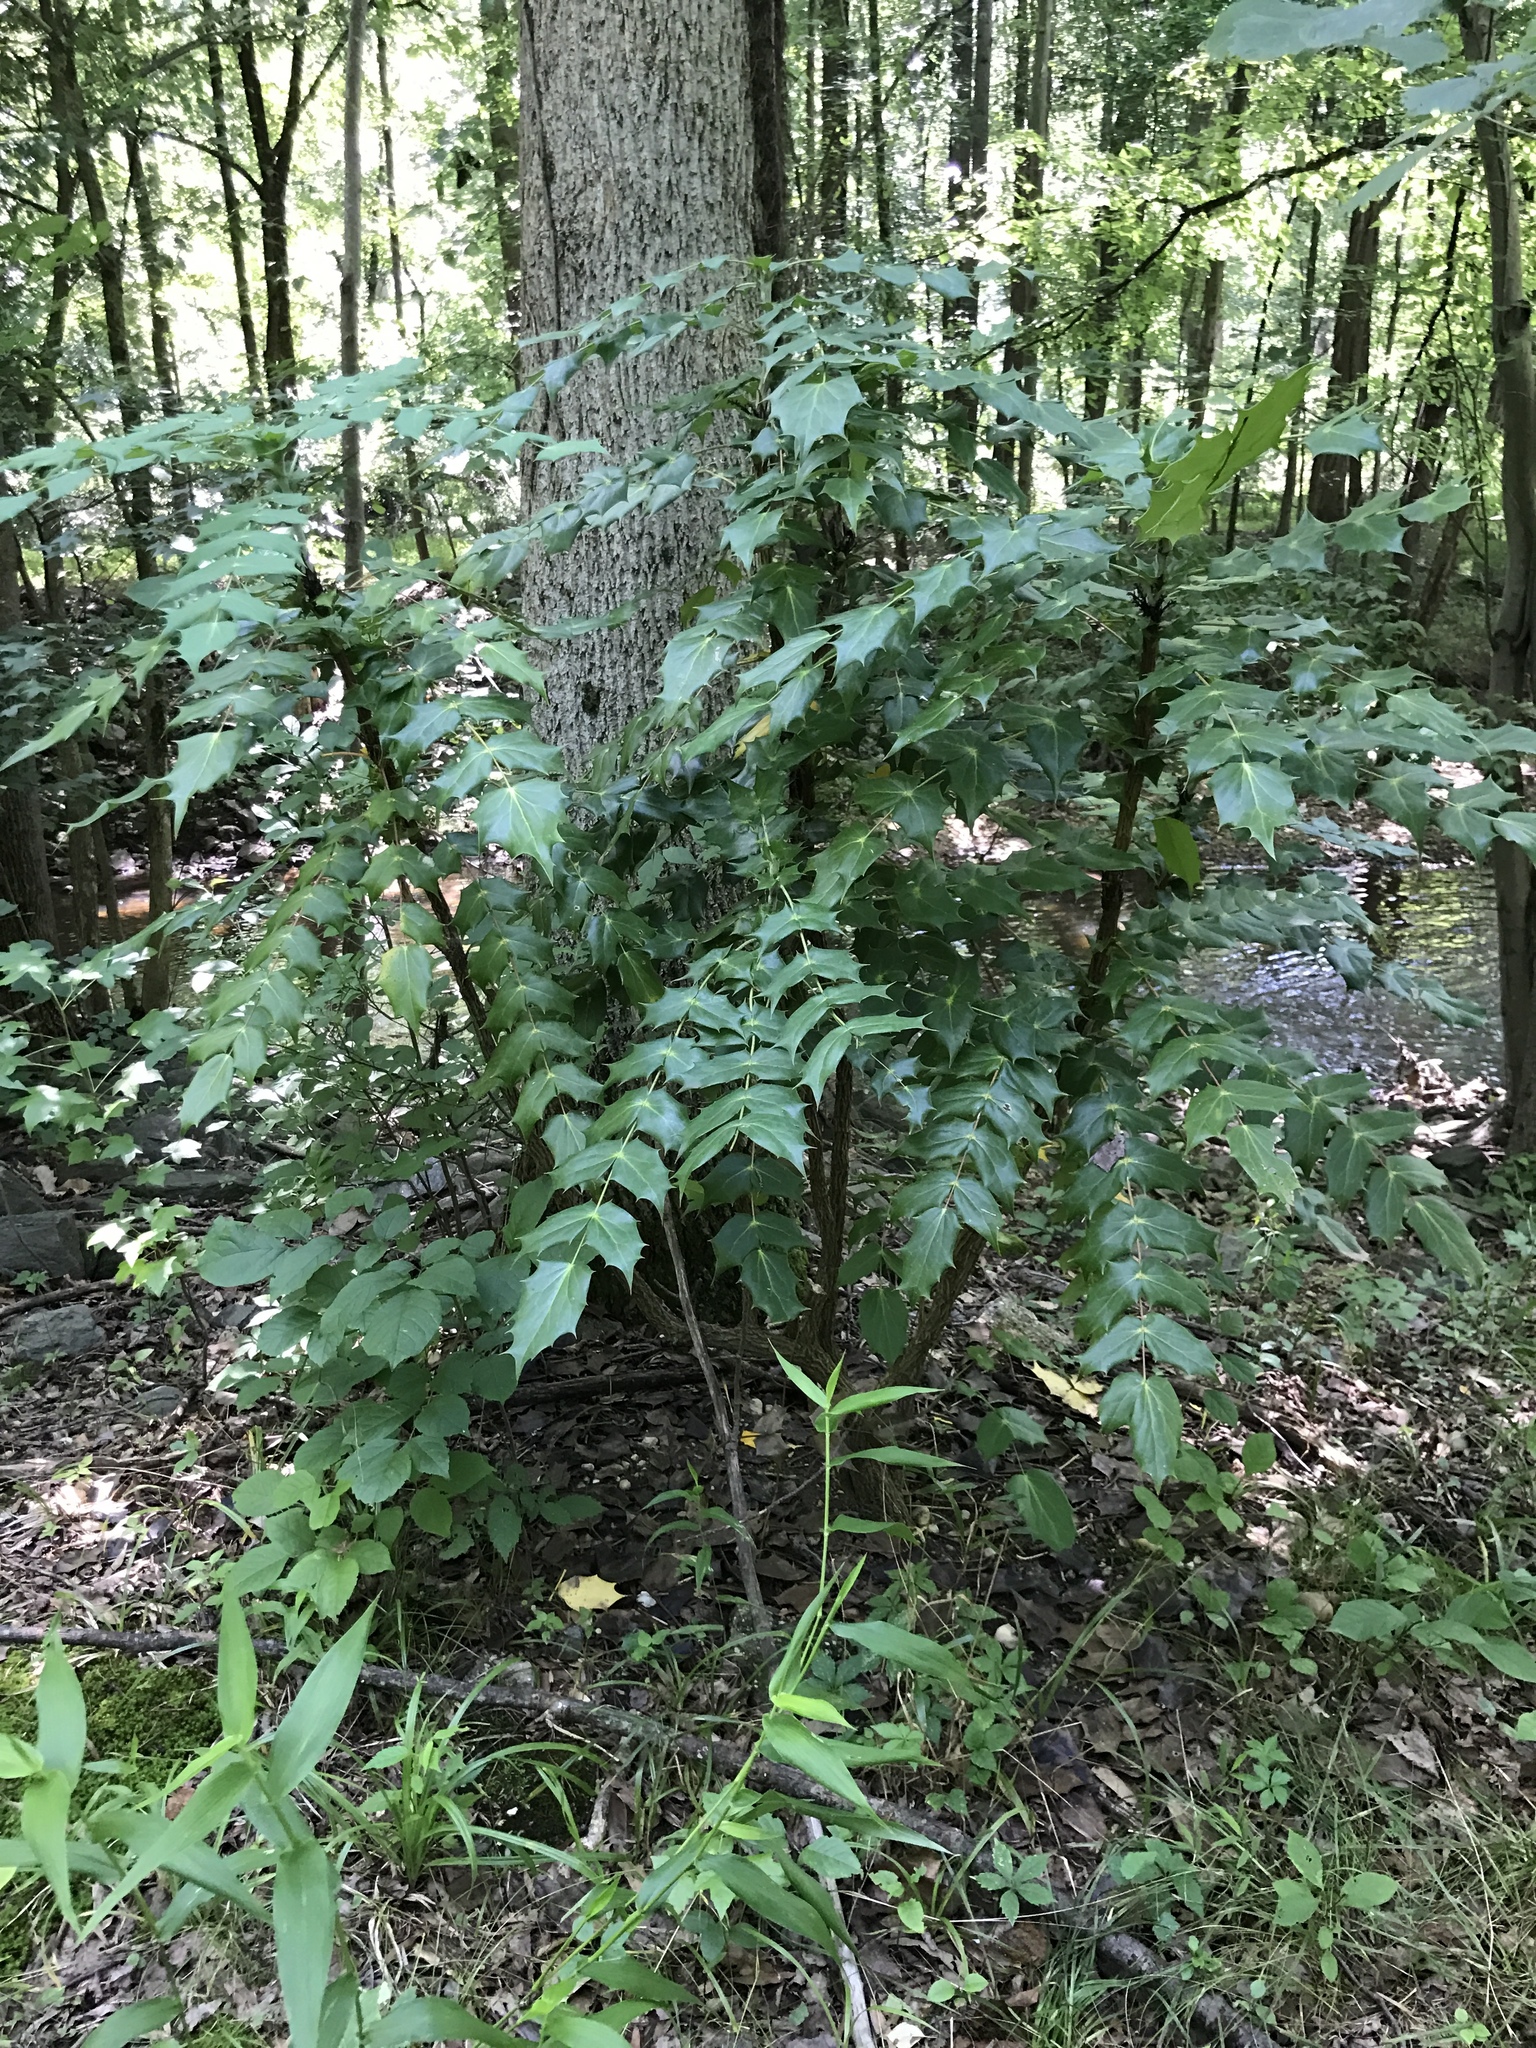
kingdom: Plantae
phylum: Tracheophyta
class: Magnoliopsida
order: Ranunculales
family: Berberidaceae
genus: Mahonia
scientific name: Mahonia bealei
